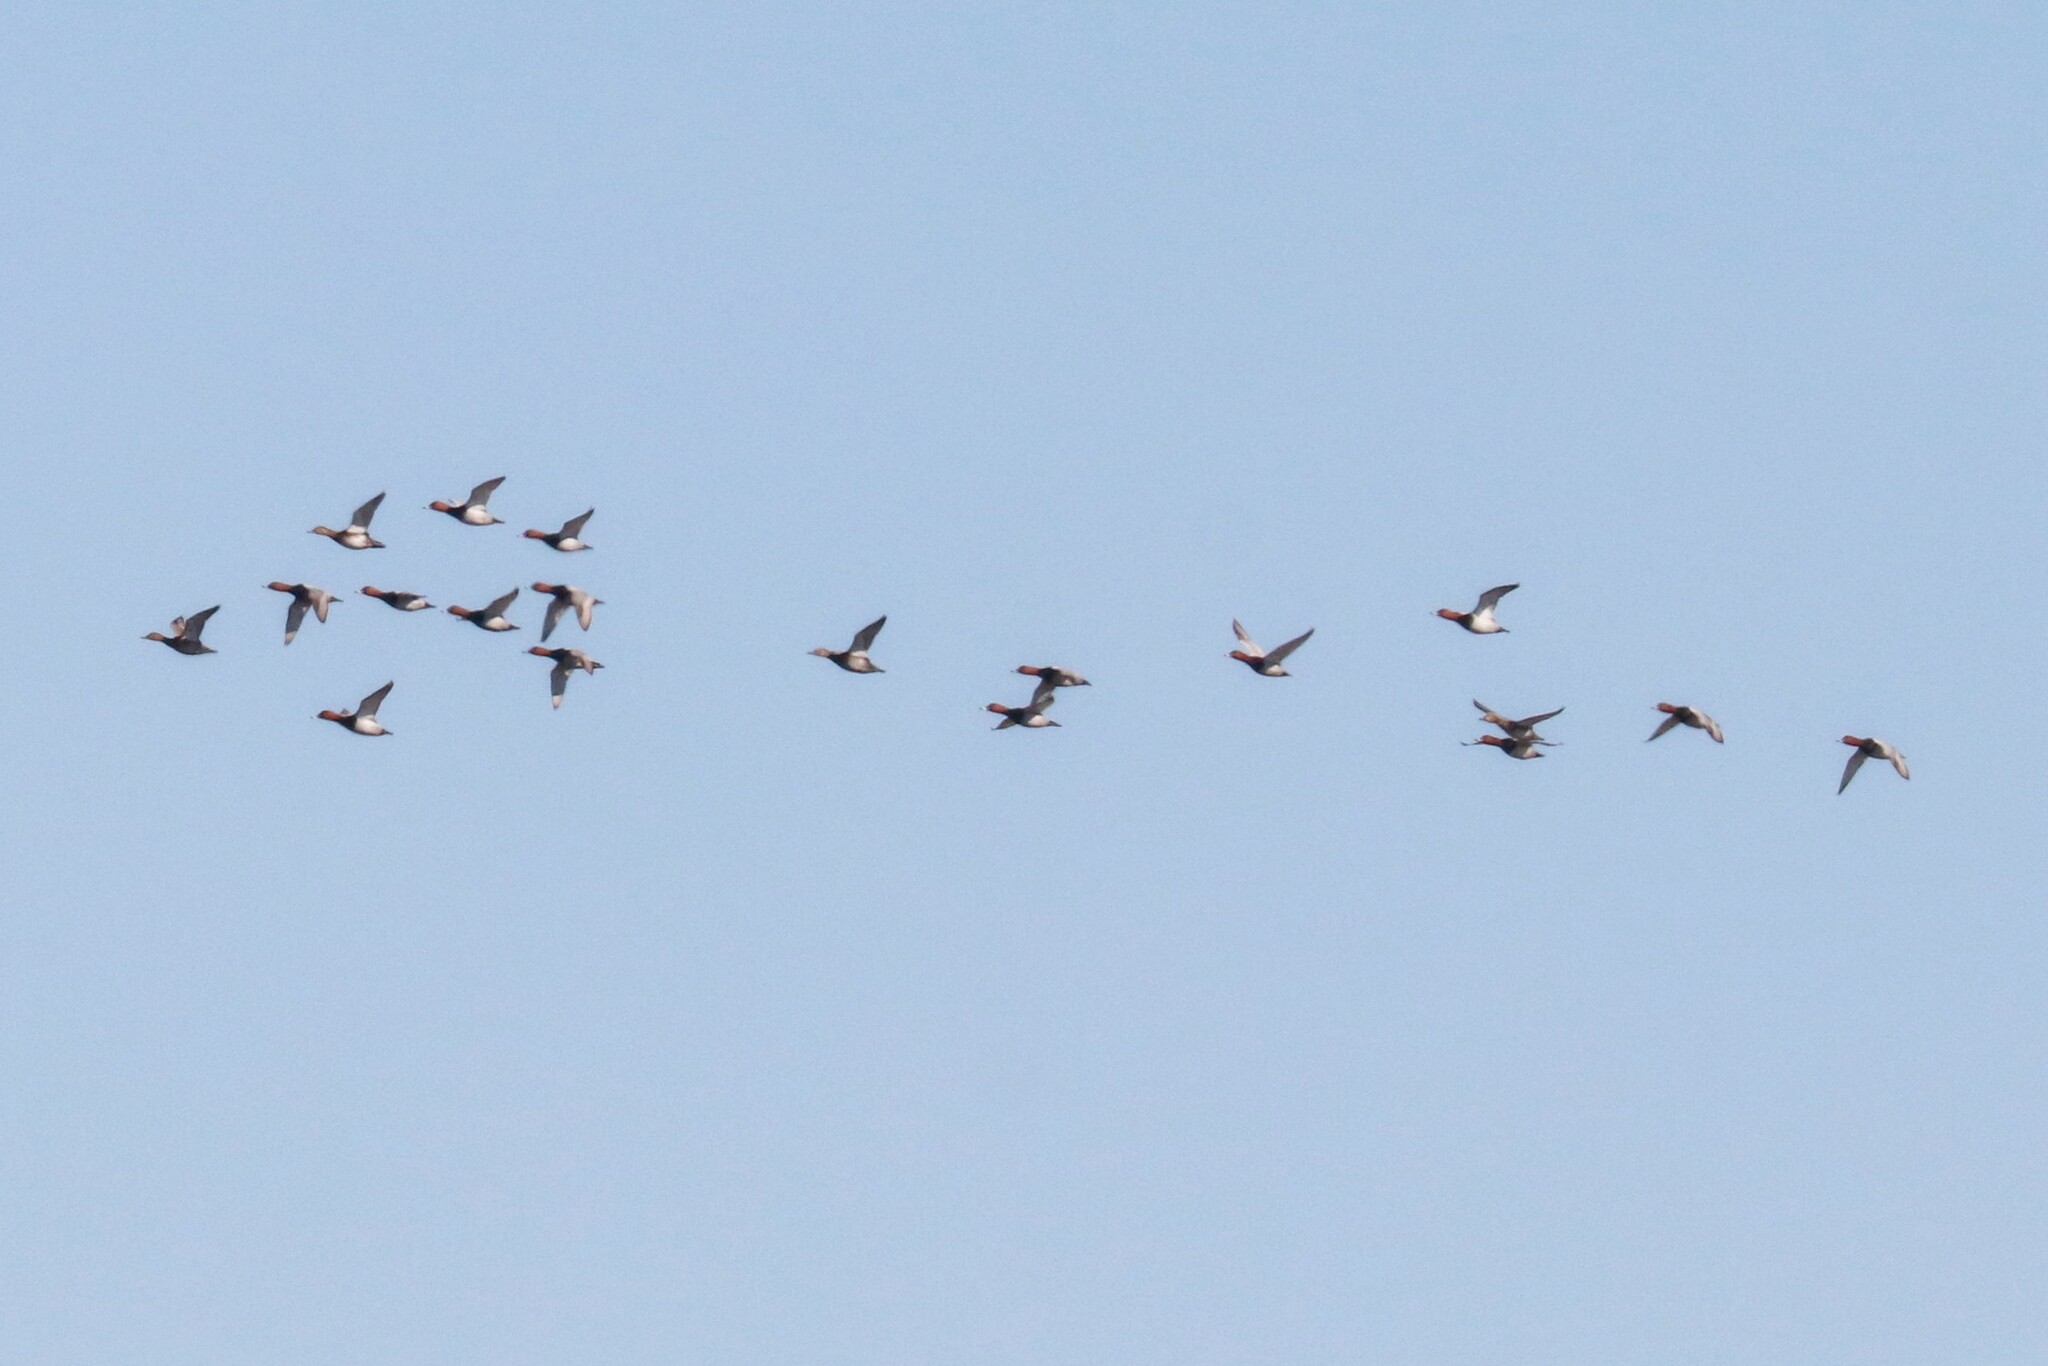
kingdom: Animalia
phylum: Chordata
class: Aves
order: Anseriformes
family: Anatidae
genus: Aythya
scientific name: Aythya ferina
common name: Common pochard
